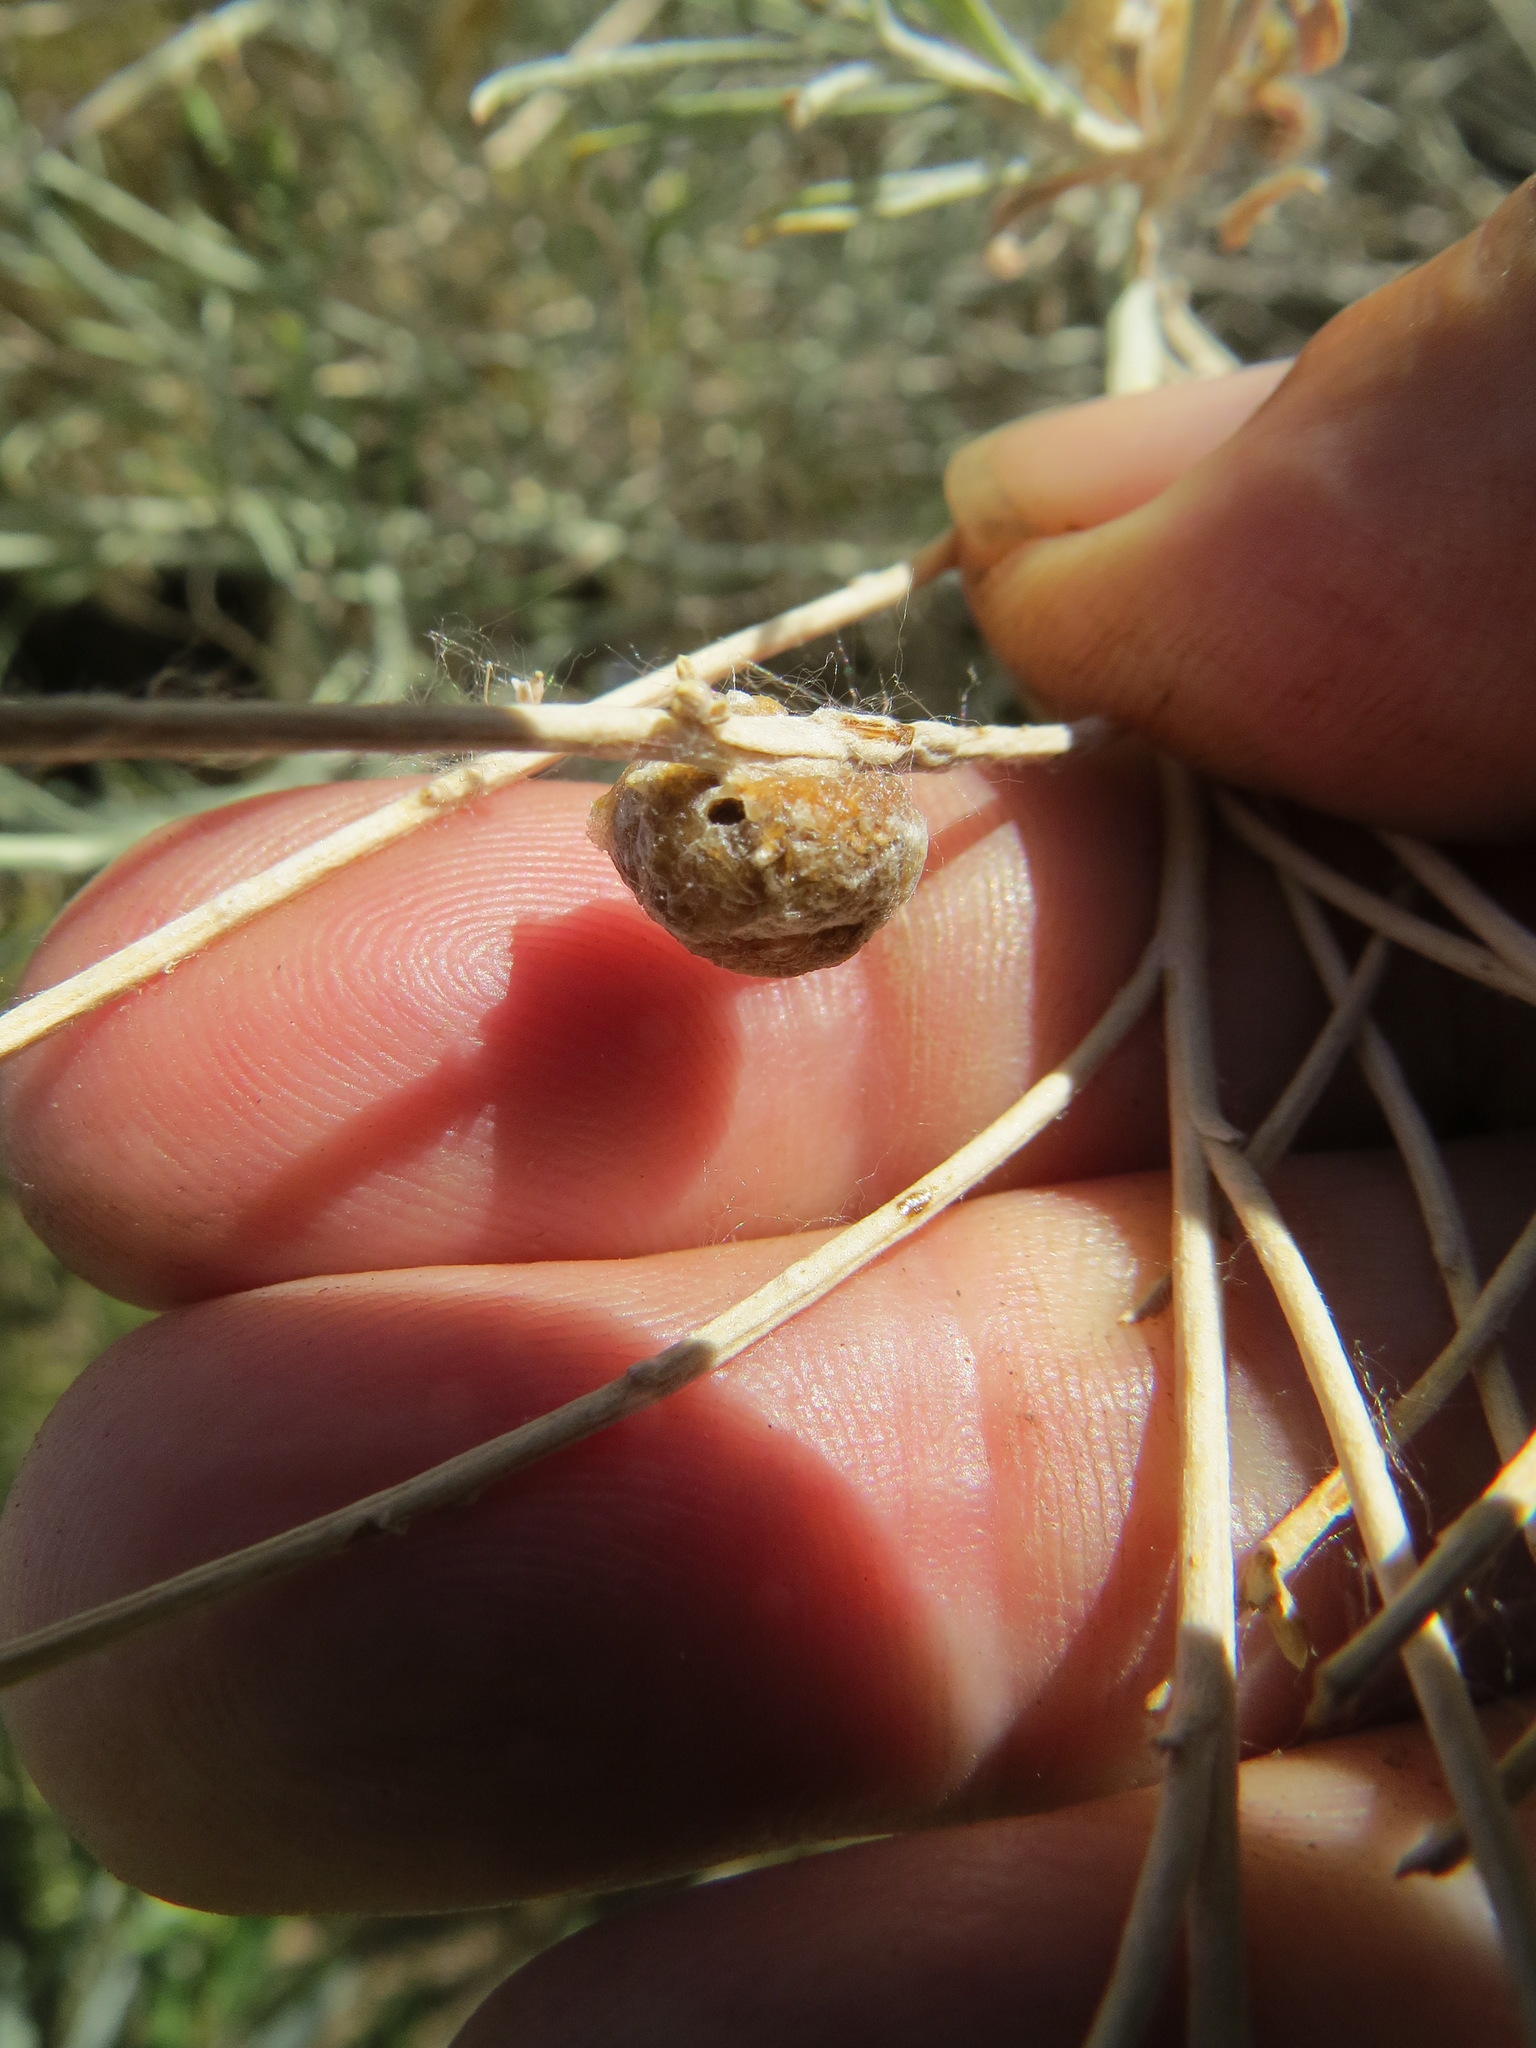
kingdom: Animalia
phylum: Arthropoda
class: Insecta
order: Diptera
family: Tephritidae
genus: Aciurina
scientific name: Aciurina trixa
